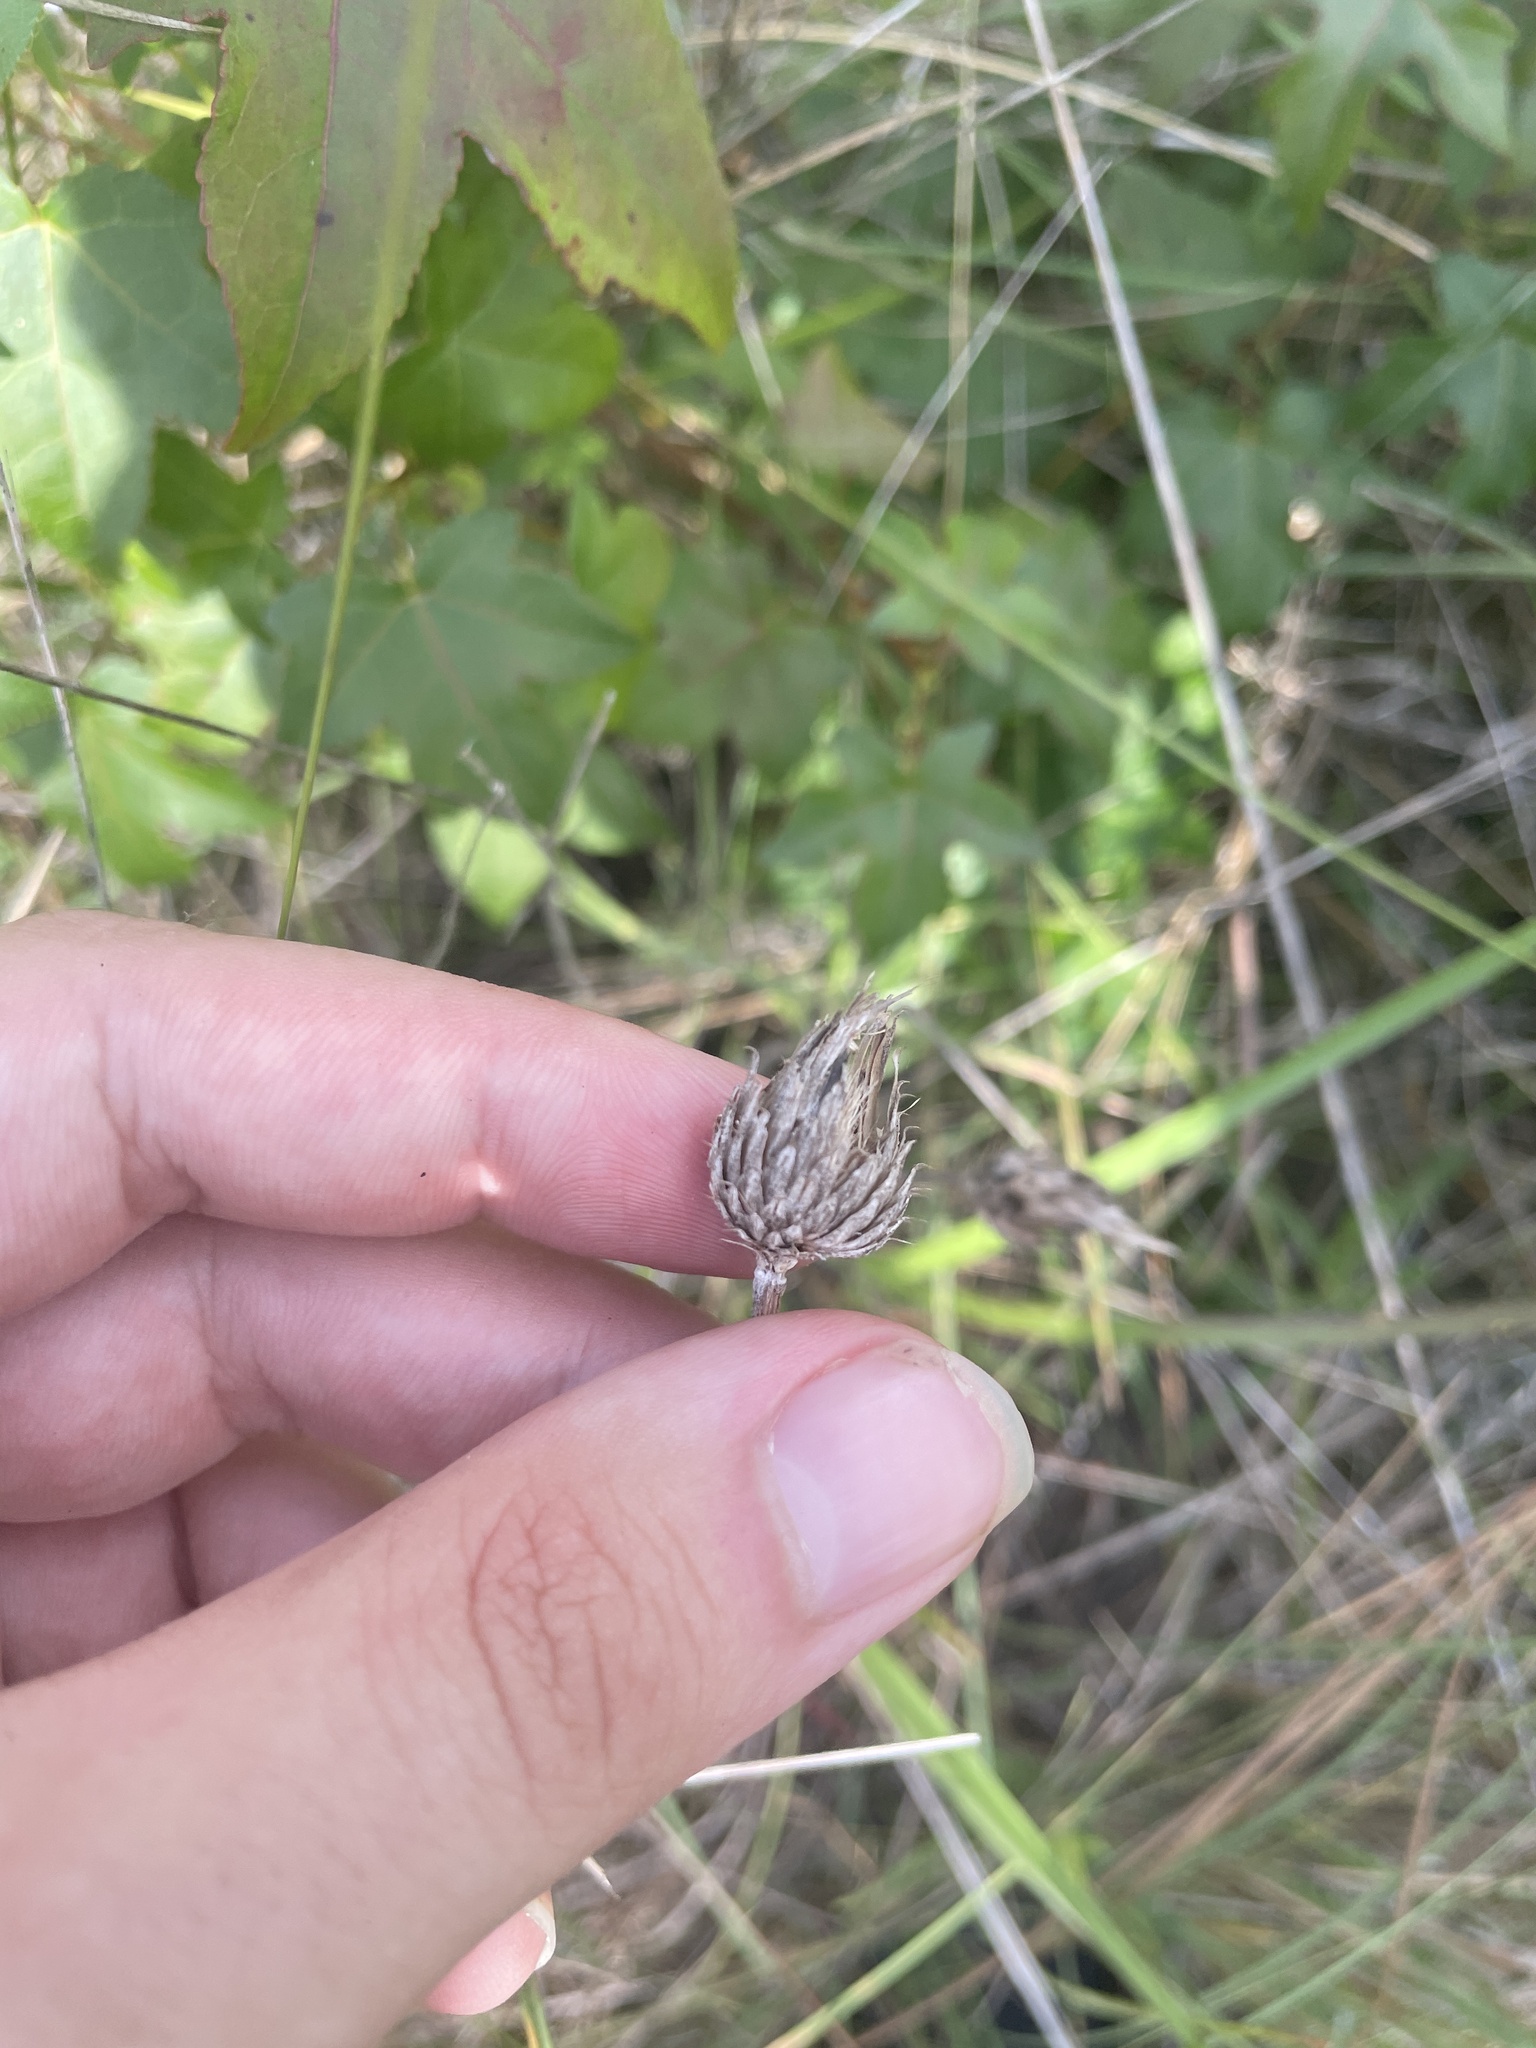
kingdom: Plantae
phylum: Tracheophyta
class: Magnoliopsida
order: Asterales
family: Asteraceae
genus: Cirsium
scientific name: Cirsium virginianum
